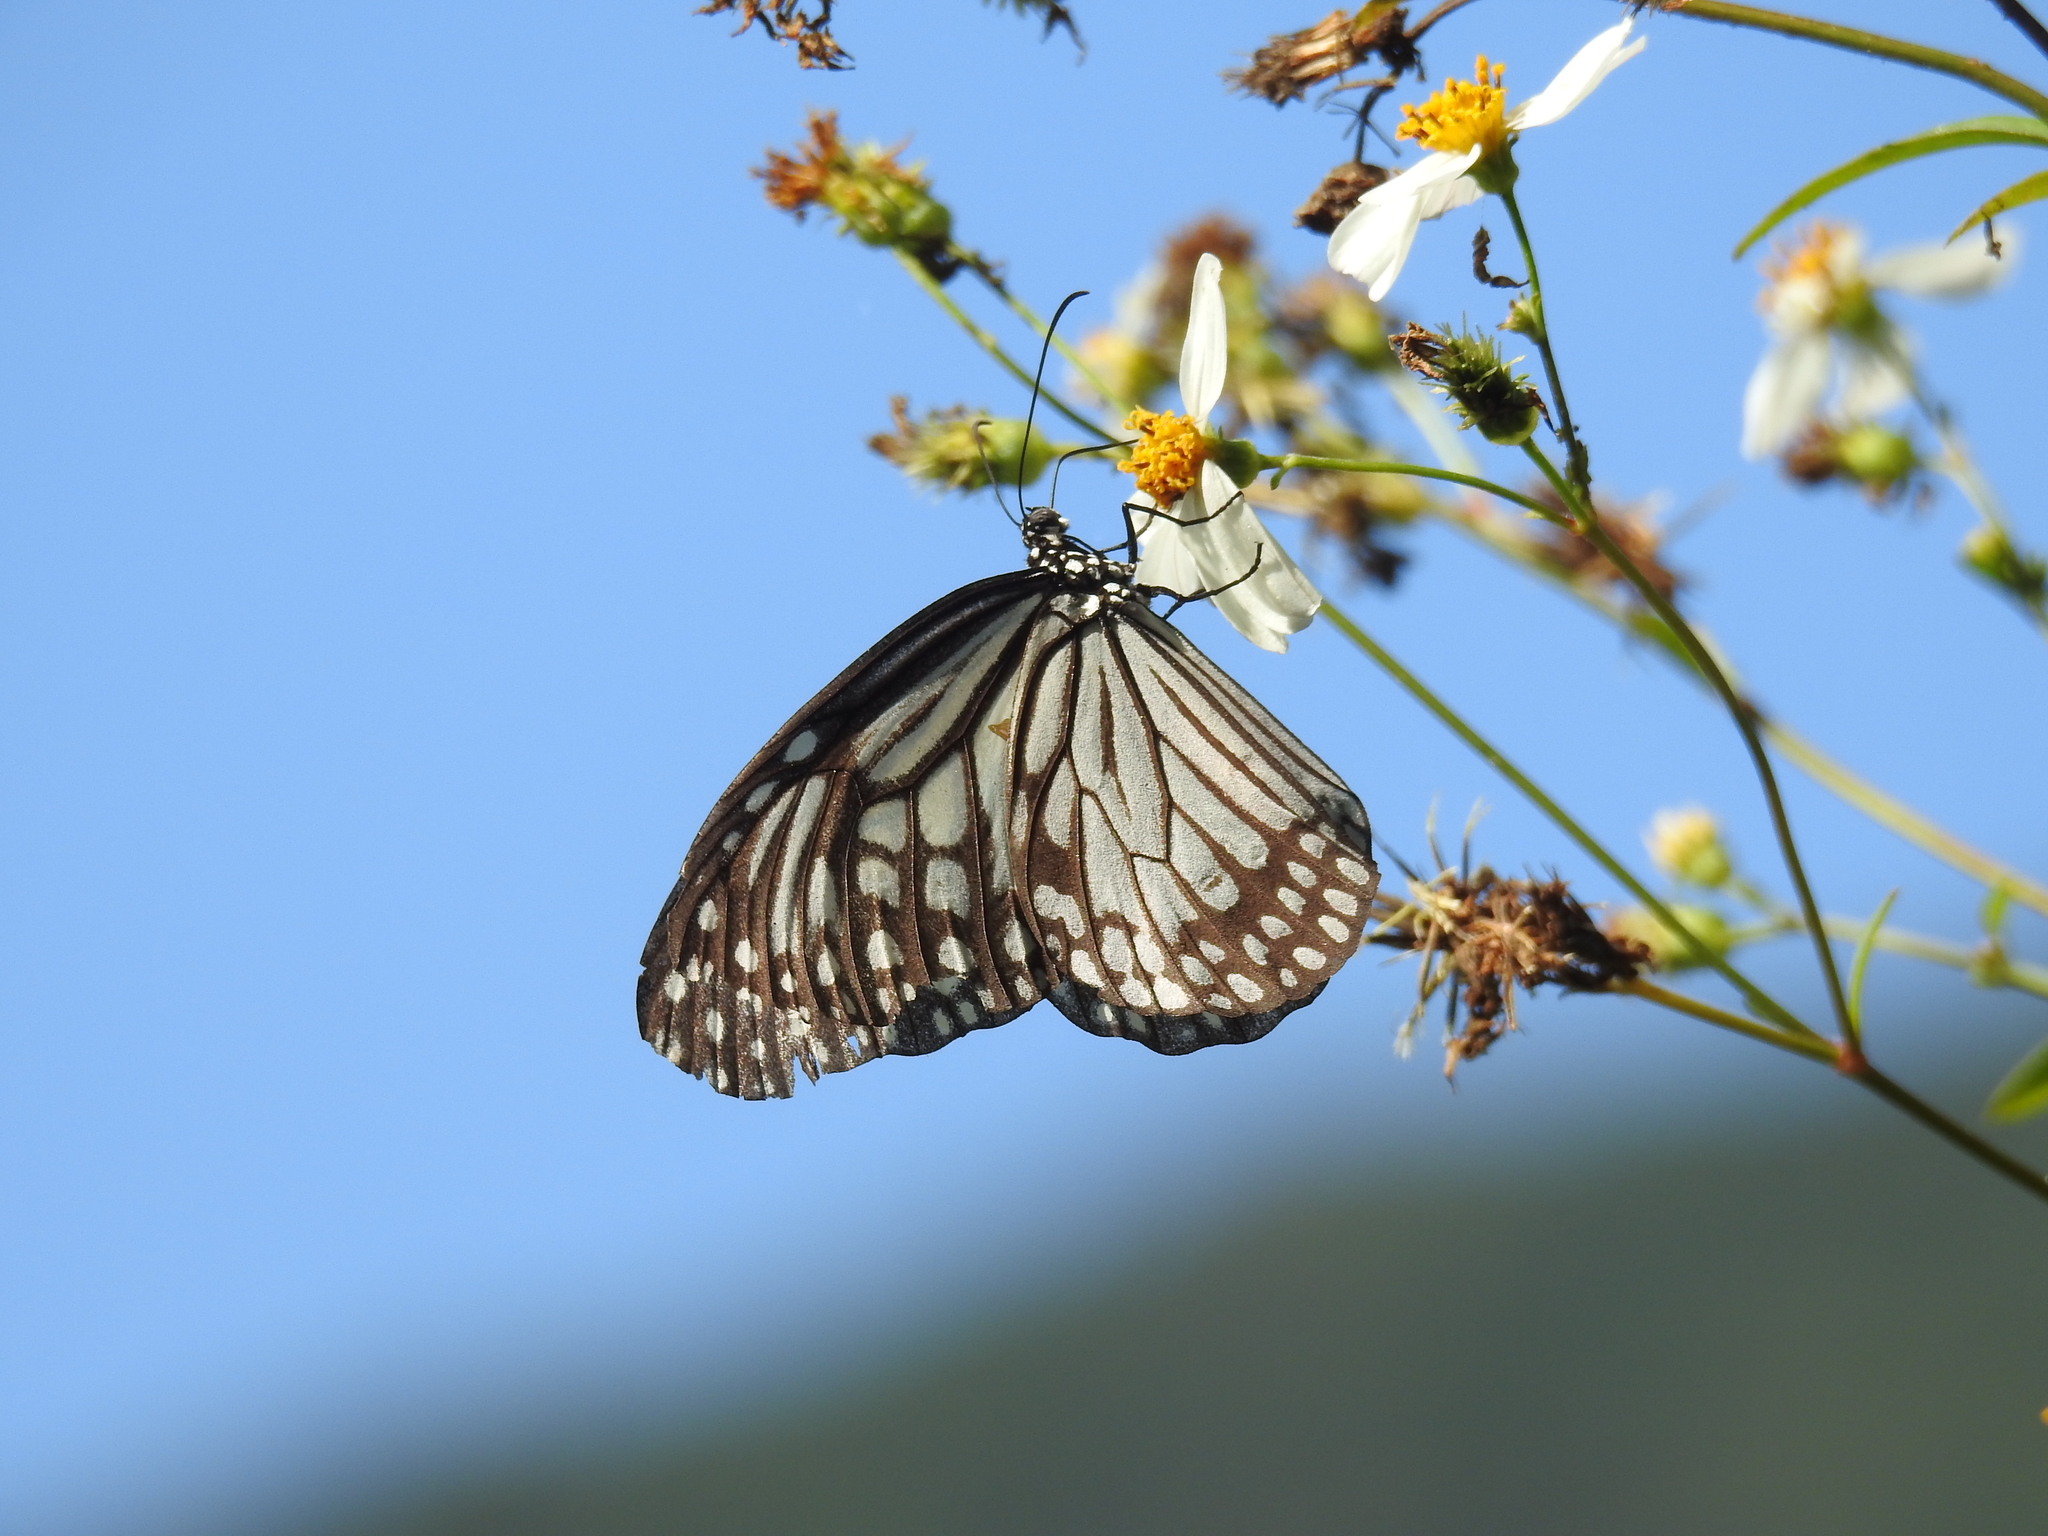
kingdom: Animalia
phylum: Arthropoda
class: Insecta
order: Lepidoptera
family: Nymphalidae
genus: Parantica
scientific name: Parantica aglea
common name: Glassy tiger
